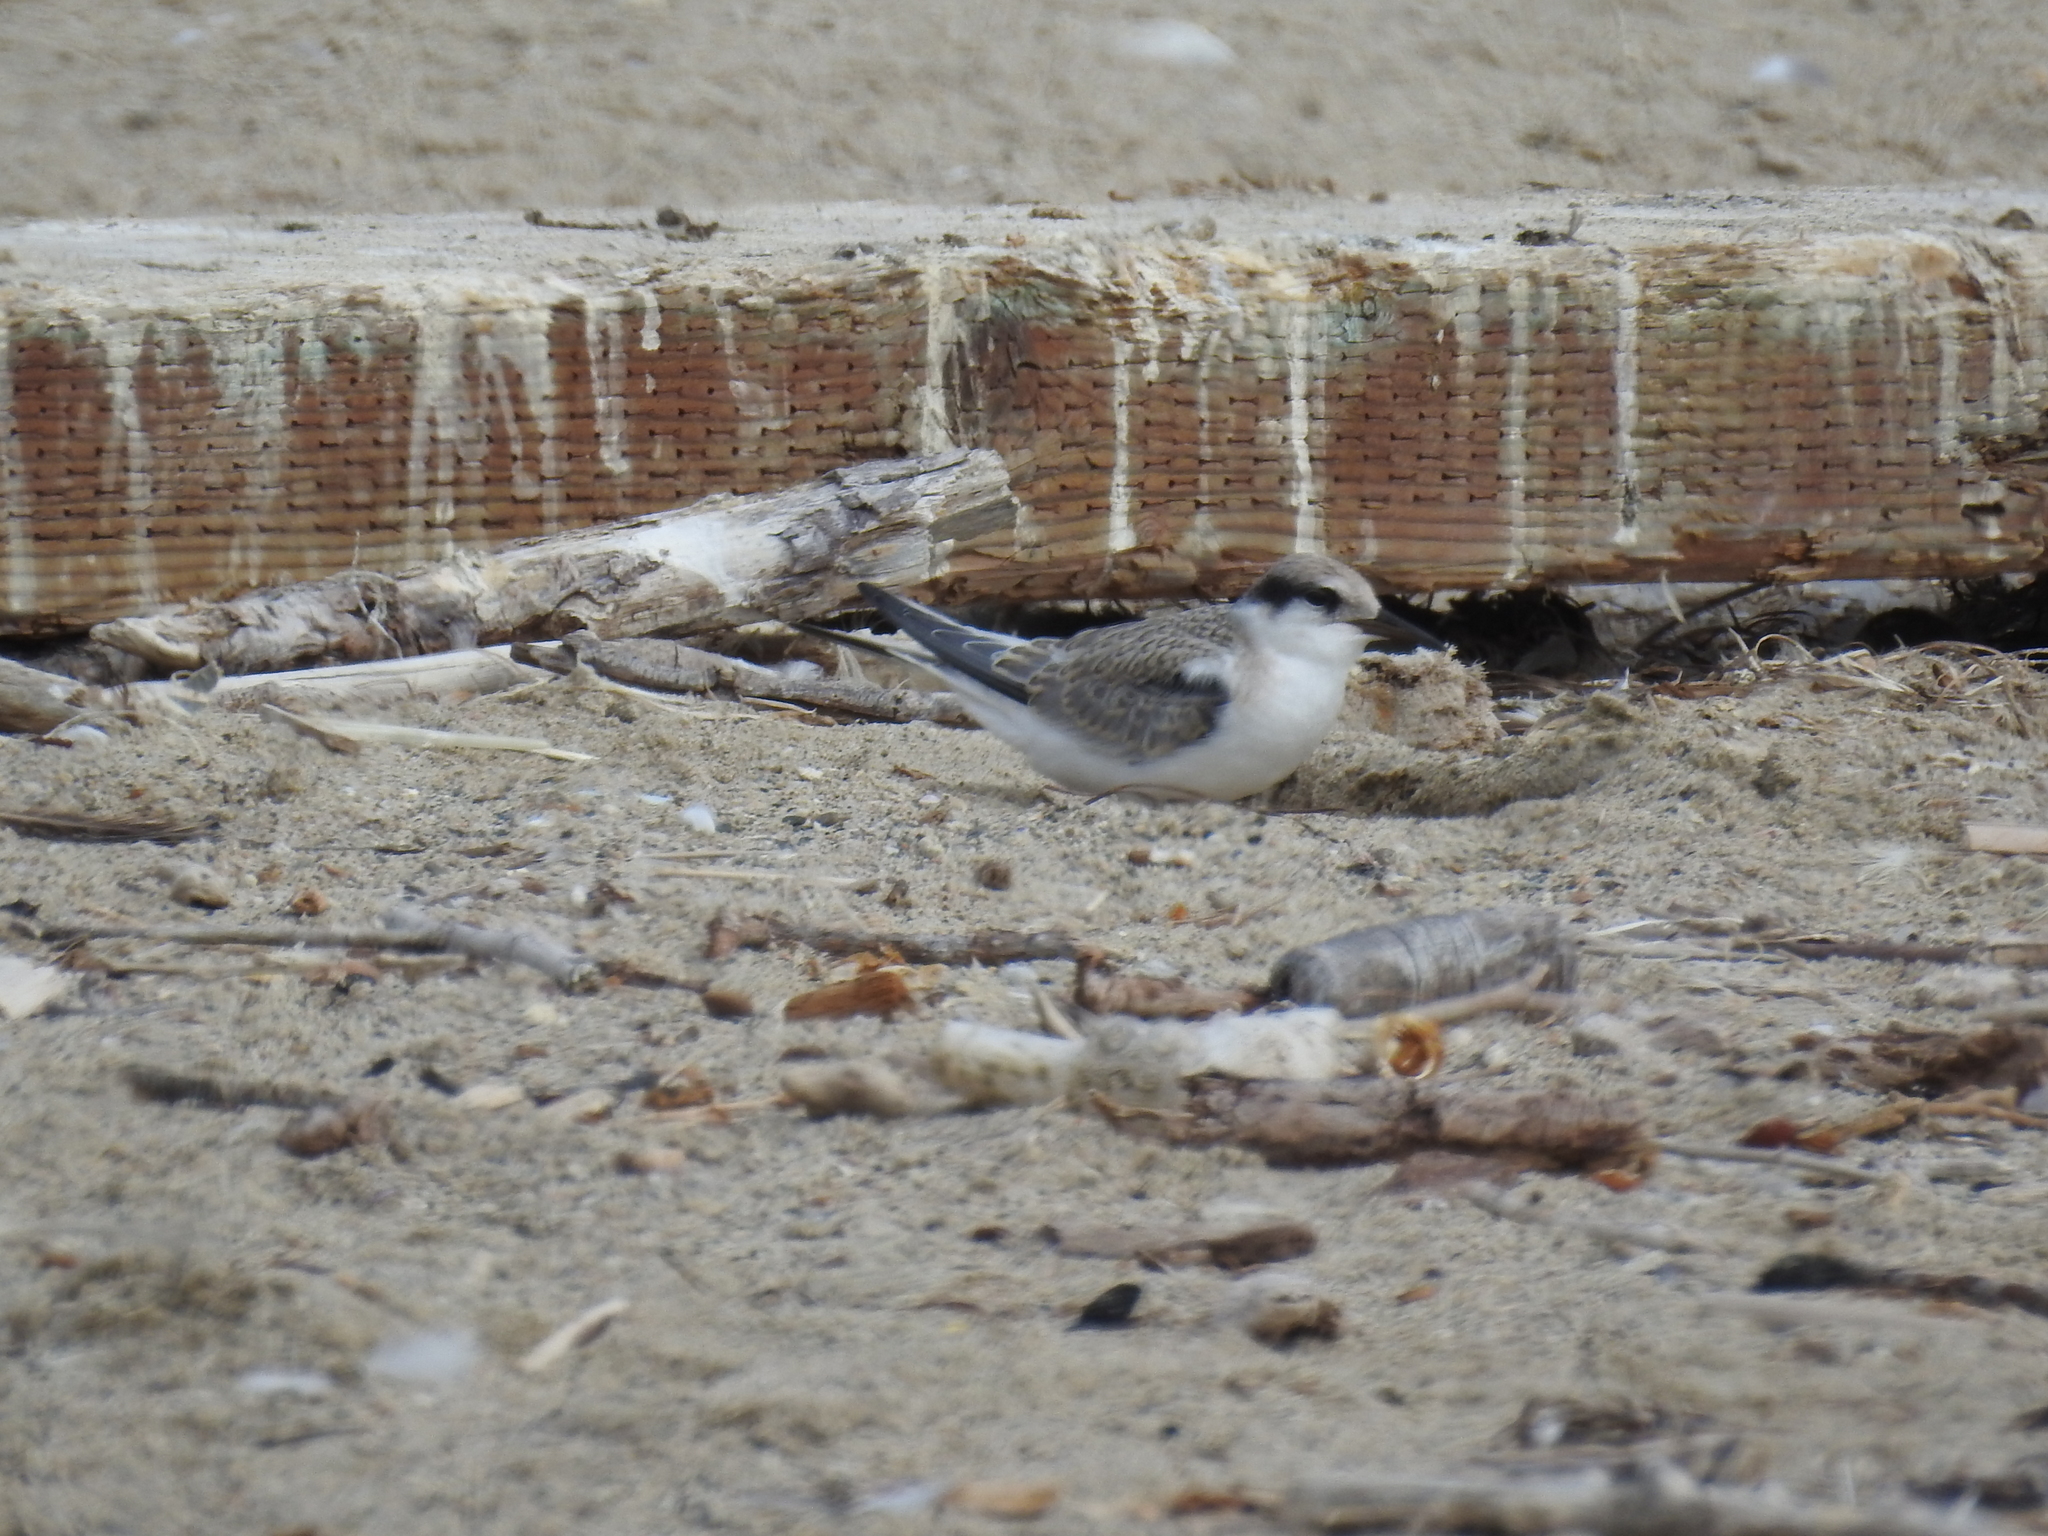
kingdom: Animalia
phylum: Chordata
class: Aves
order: Charadriiformes
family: Laridae
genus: Sternula
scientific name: Sternula antillarum
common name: Least tern
